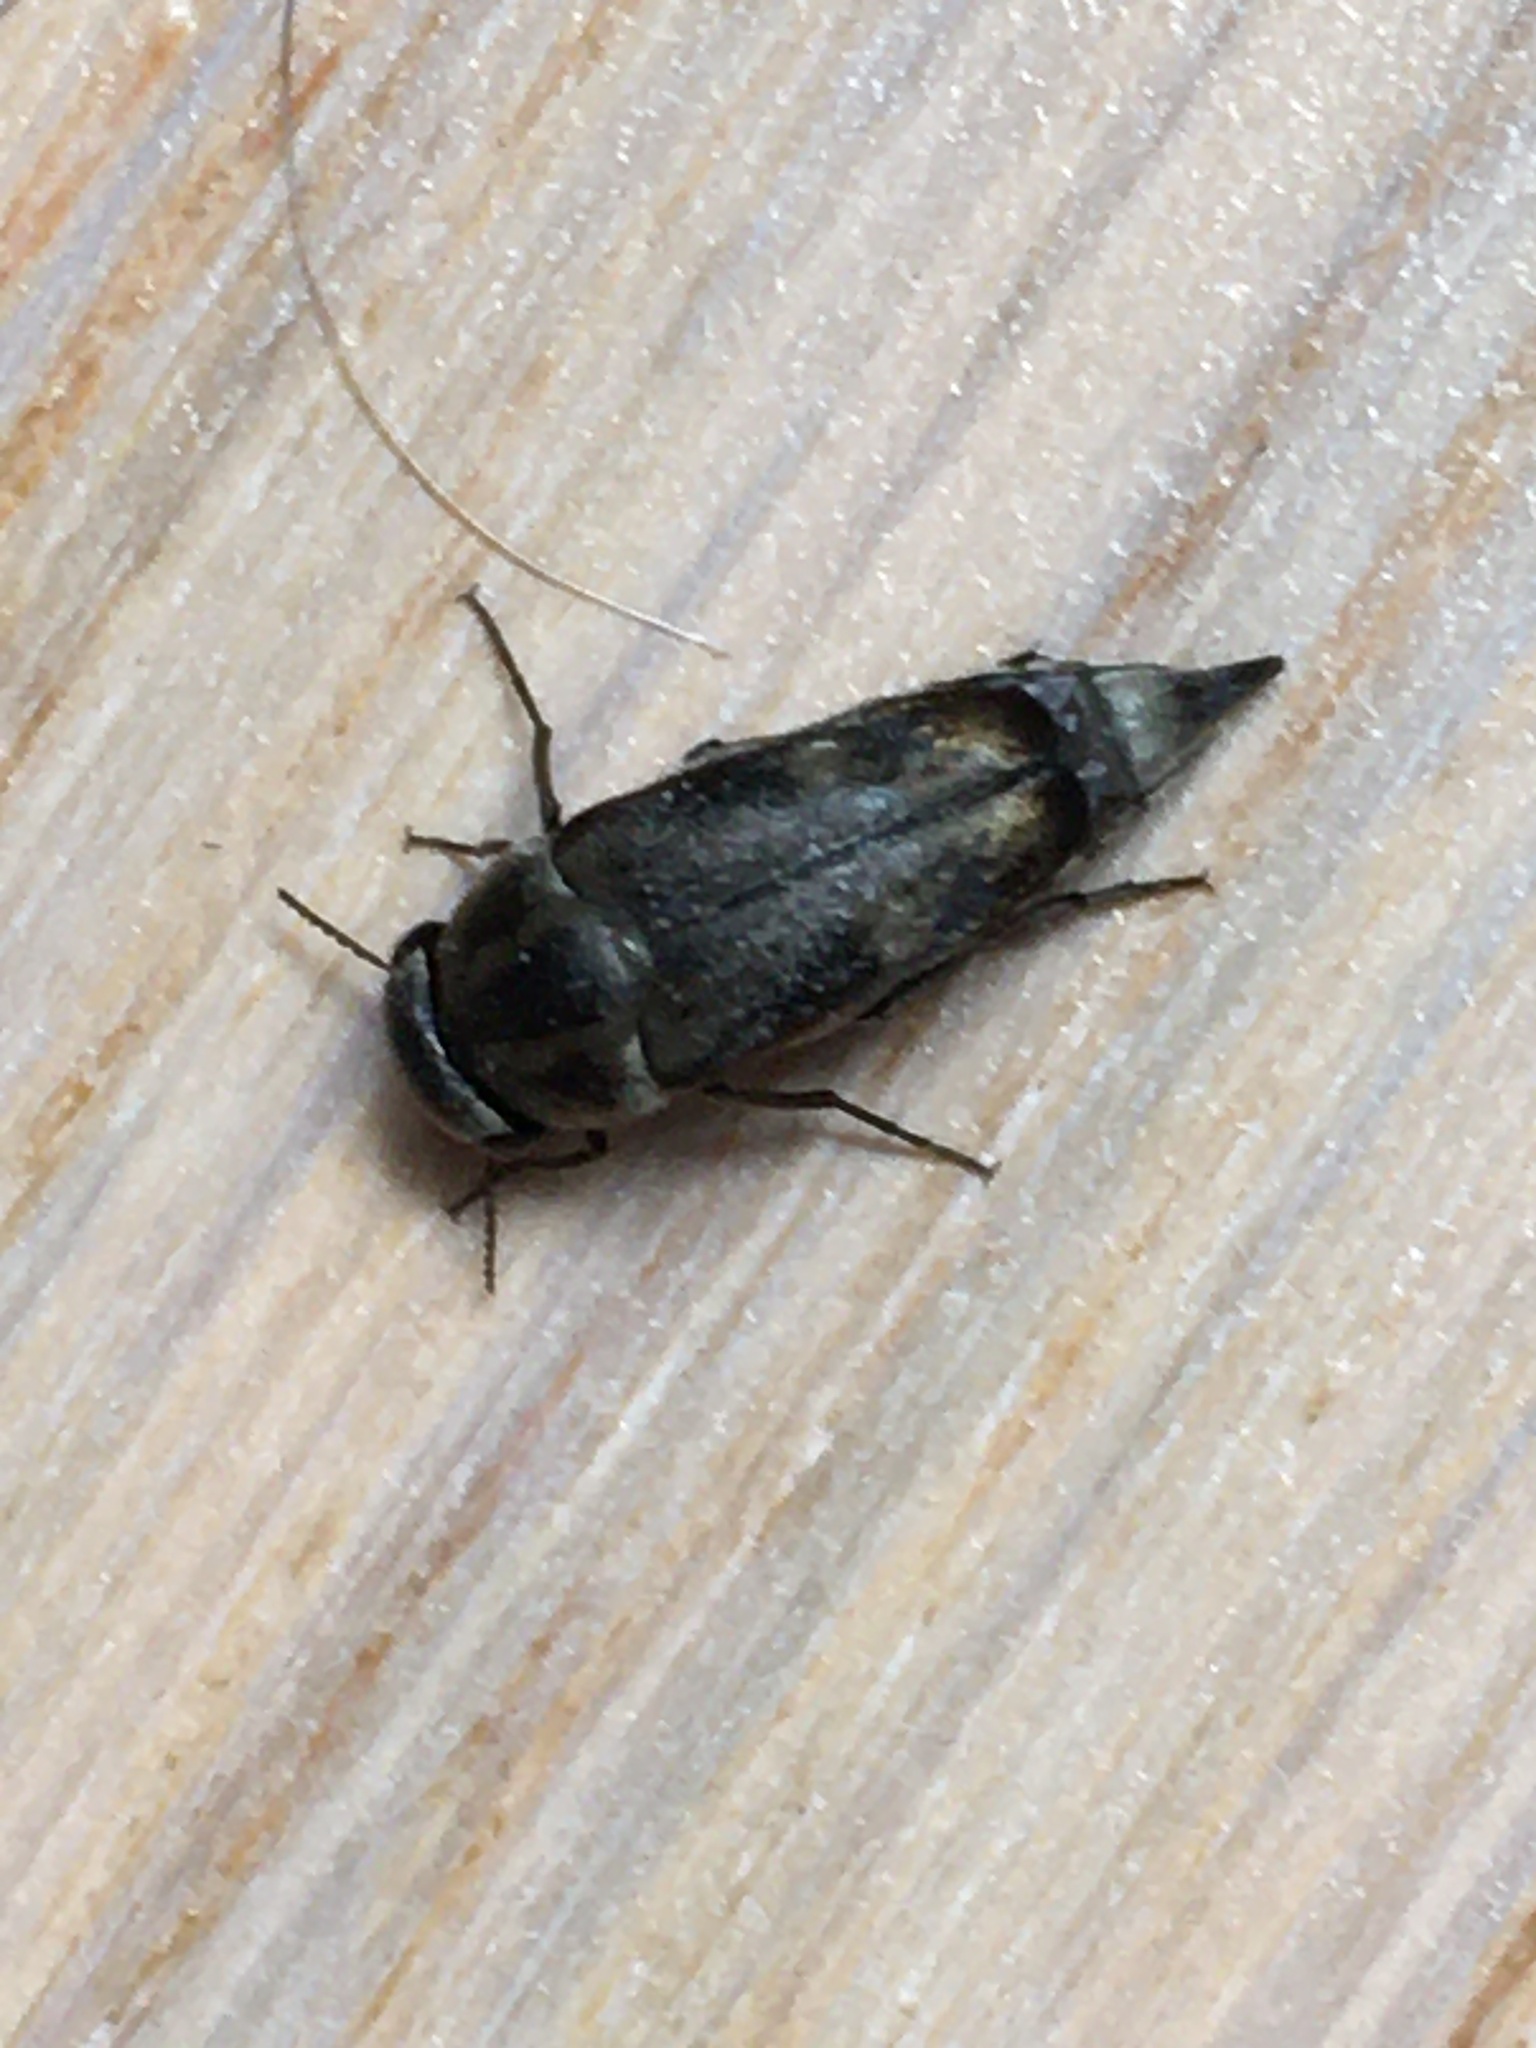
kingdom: Animalia
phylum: Arthropoda
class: Insecta
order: Coleoptera
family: Mordellidae
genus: Tomoxia
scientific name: Tomoxia bucephala
